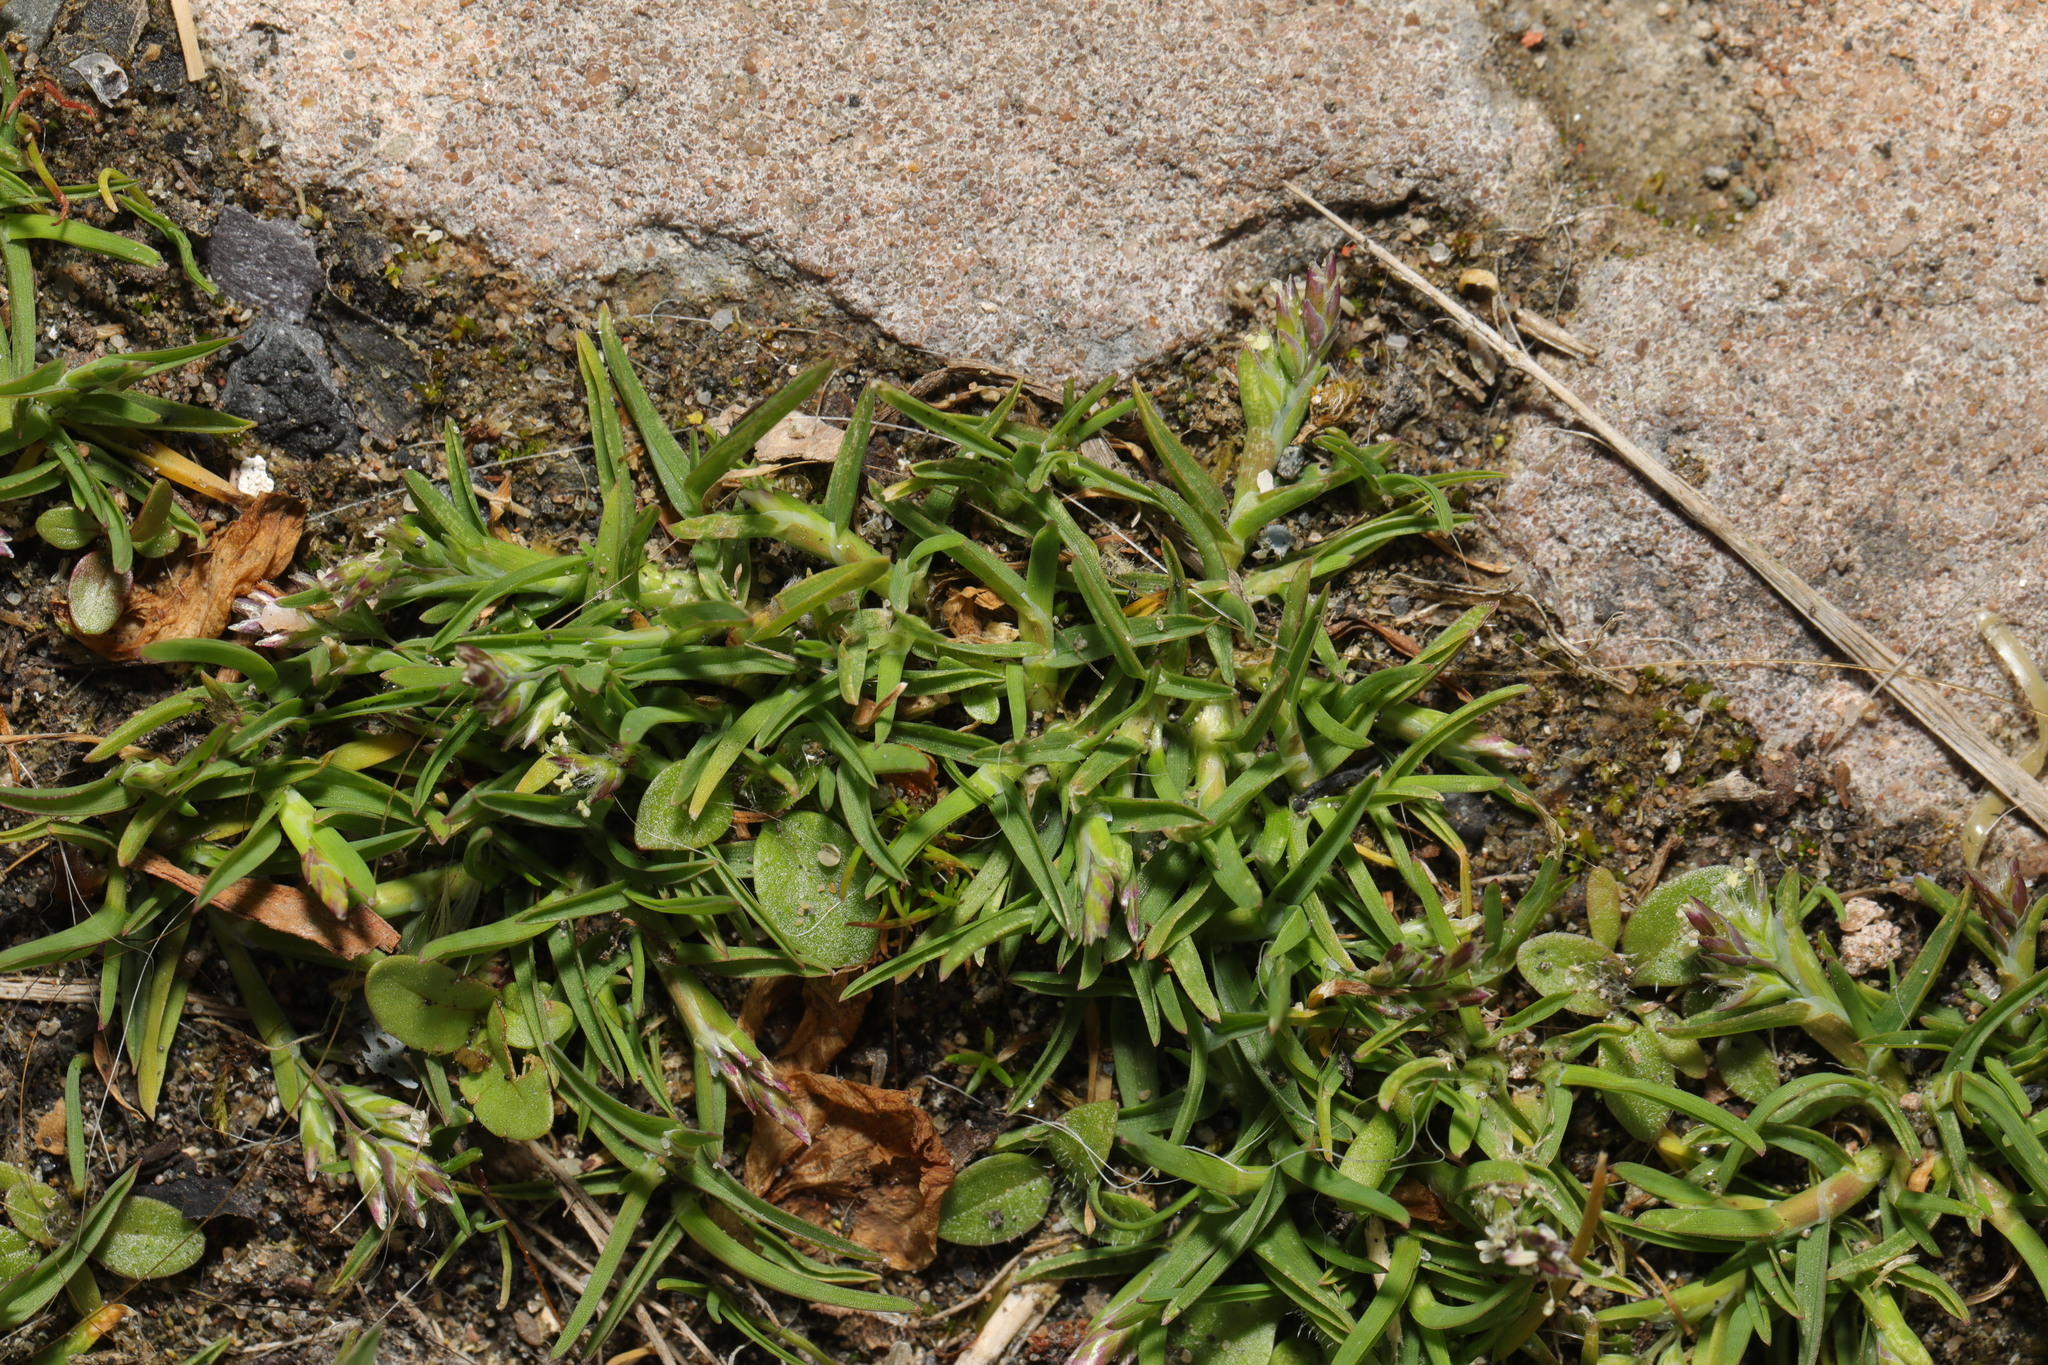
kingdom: Plantae
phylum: Tracheophyta
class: Magnoliopsida
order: Caryophyllales
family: Caryophyllaceae
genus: Sagina
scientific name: Sagina procumbens
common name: Procumbent pearlwort
